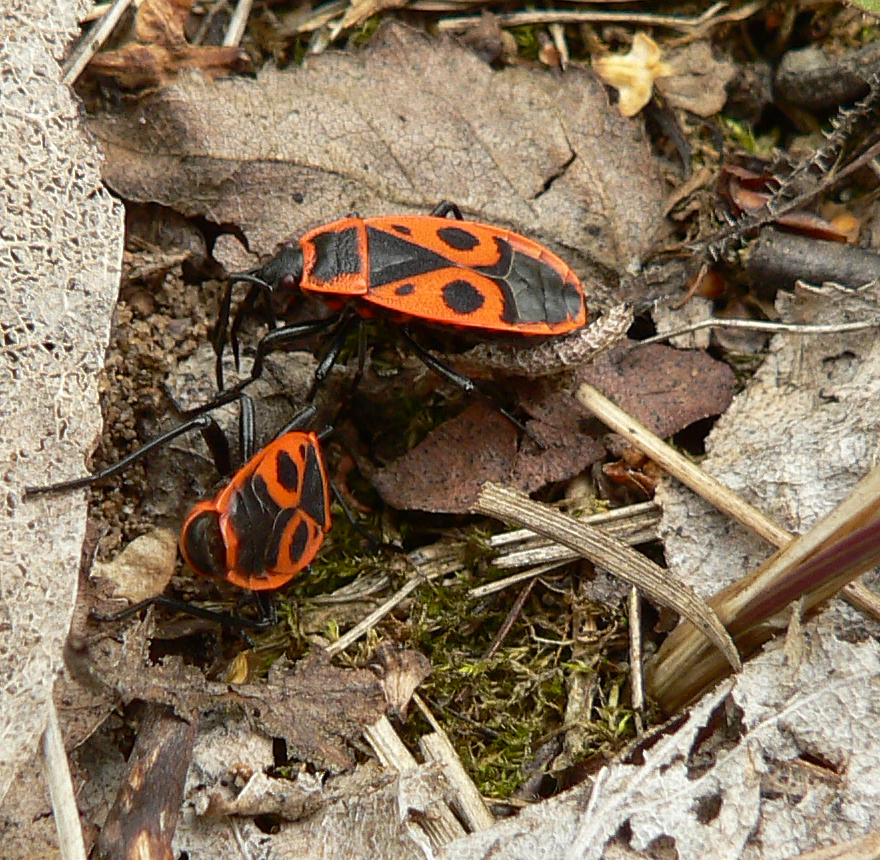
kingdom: Animalia
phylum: Arthropoda
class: Insecta
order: Hemiptera
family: Pyrrhocoridae
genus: Pyrrhocoris
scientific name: Pyrrhocoris apterus
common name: Firebug
